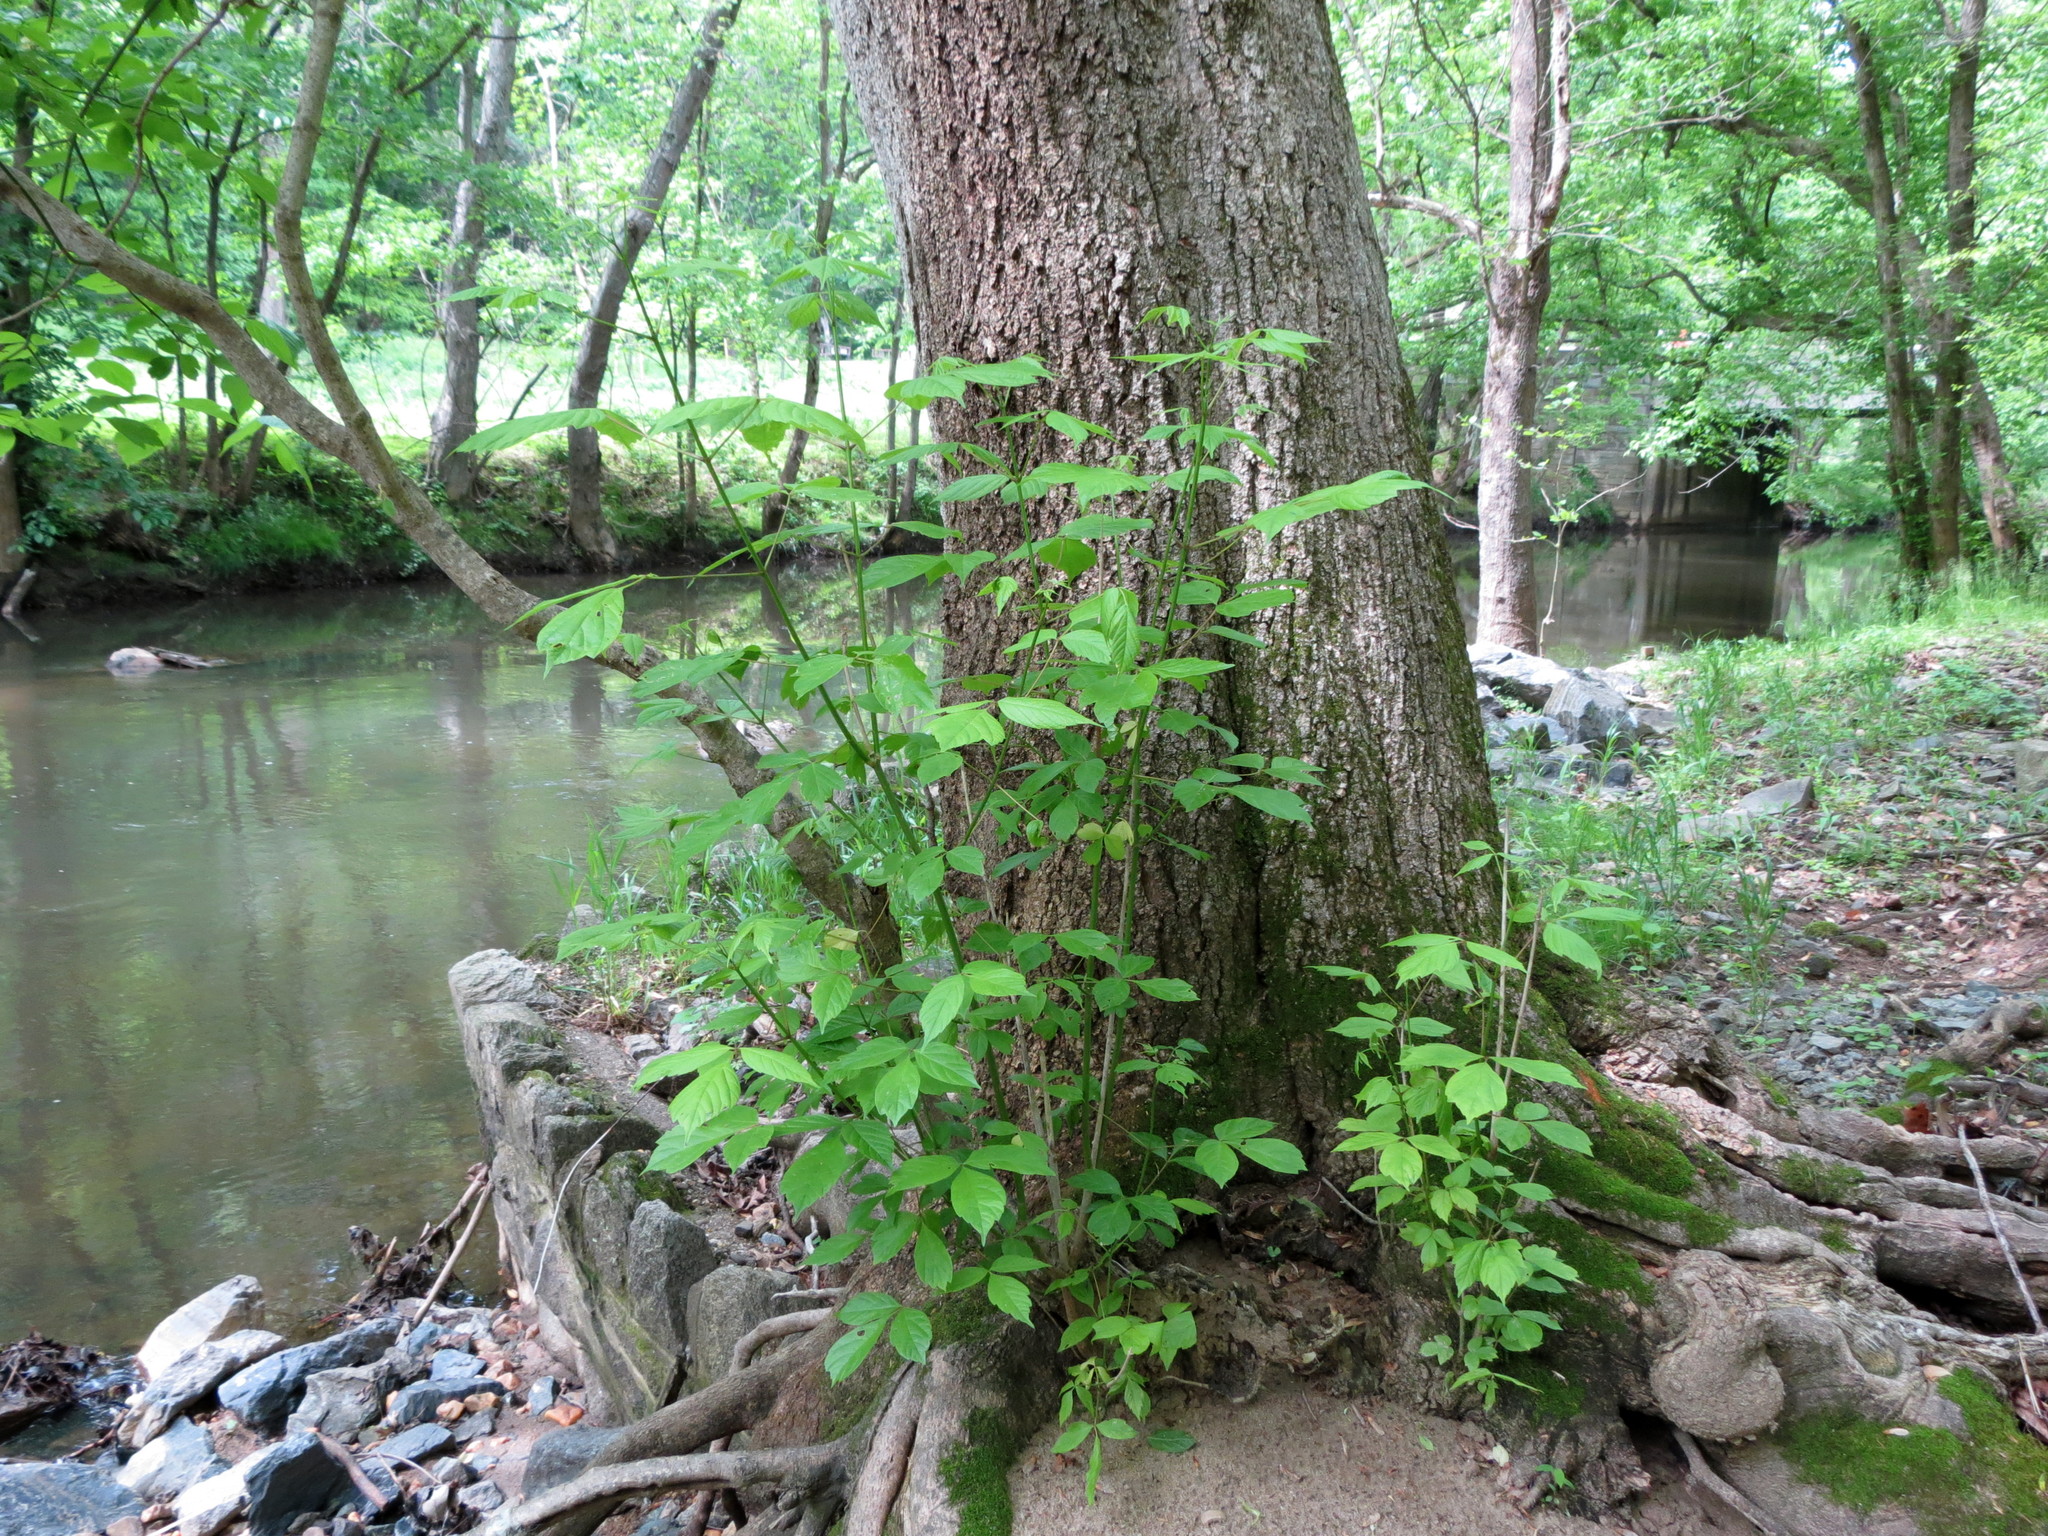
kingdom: Plantae
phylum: Tracheophyta
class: Magnoliopsida
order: Sapindales
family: Sapindaceae
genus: Acer
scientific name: Acer negundo
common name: Ashleaf maple
